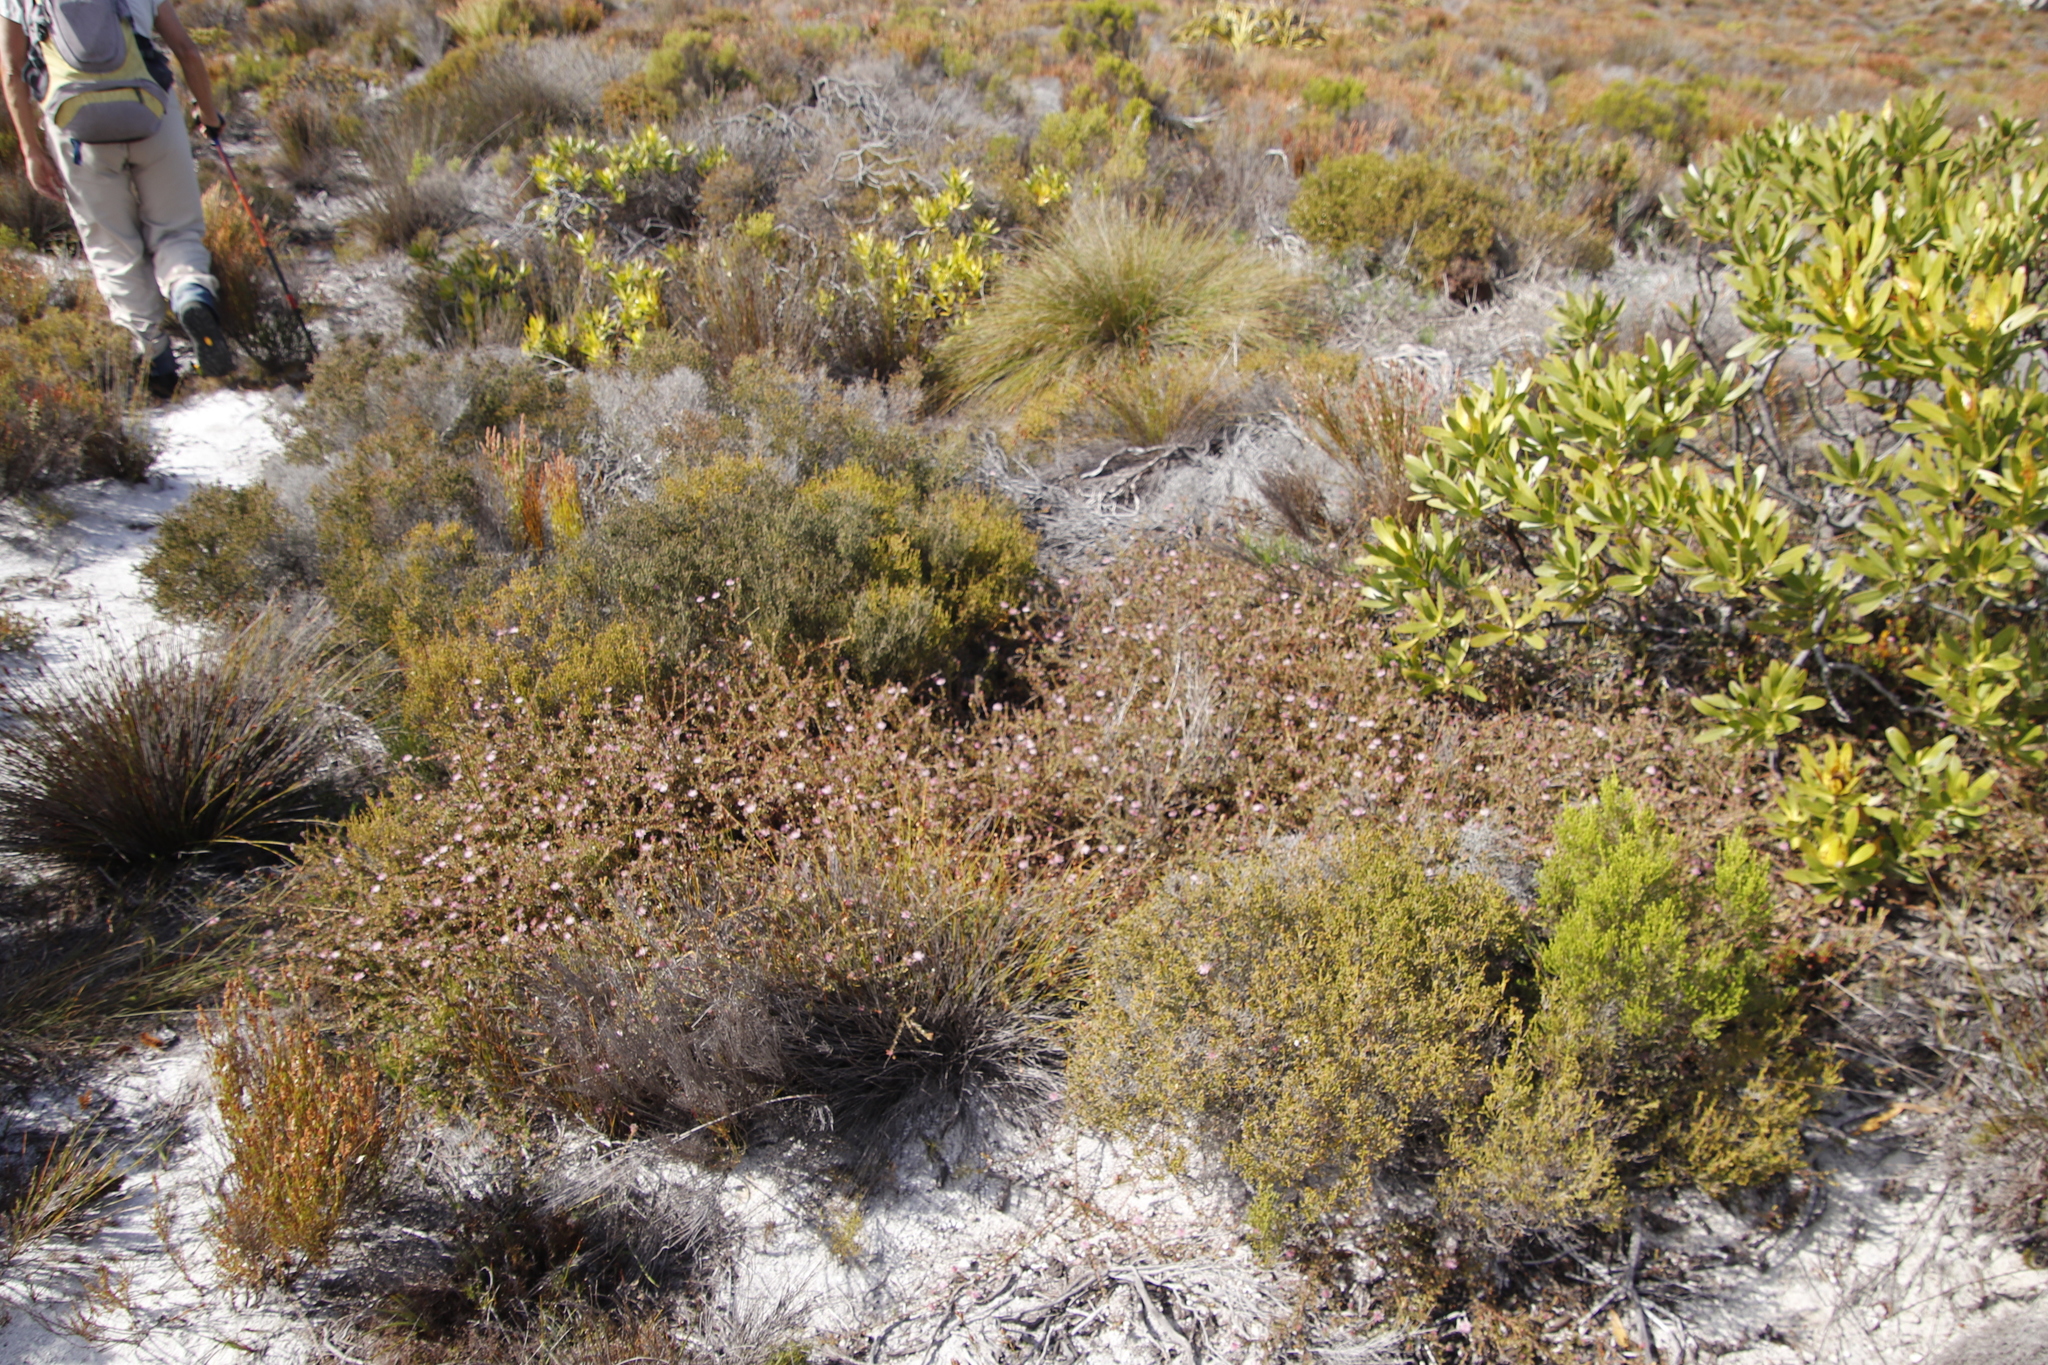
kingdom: Plantae
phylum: Tracheophyta
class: Magnoliopsida
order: Proteales
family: Proteaceae
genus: Diastella
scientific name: Diastella divaricata
